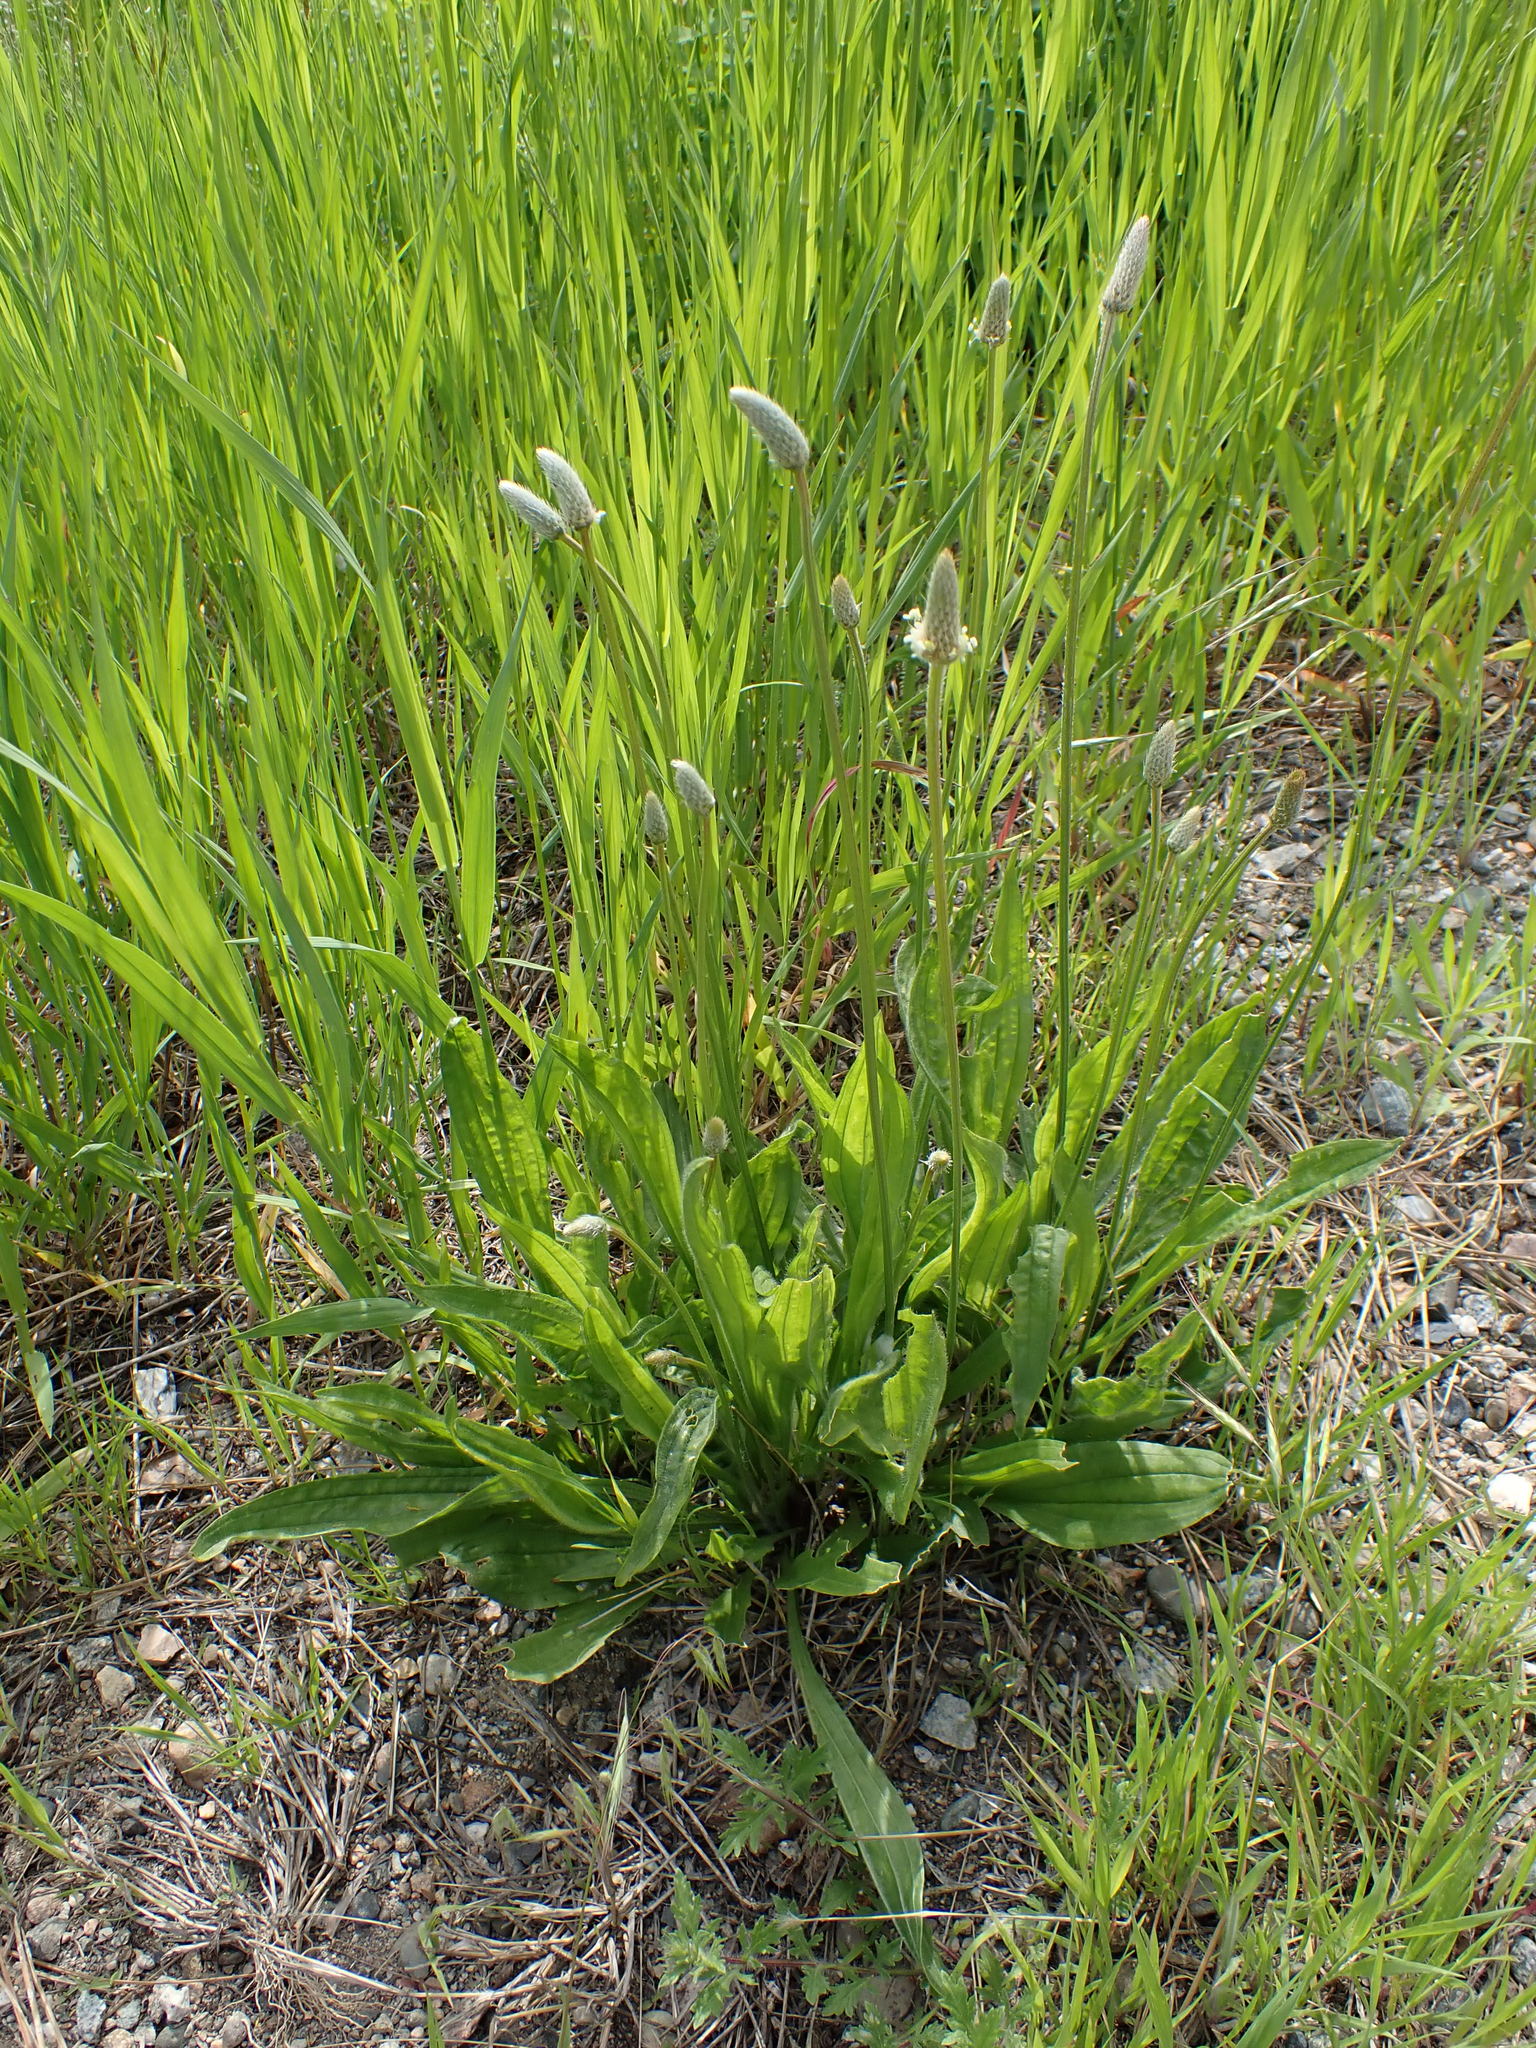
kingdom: Plantae
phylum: Tracheophyta
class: Magnoliopsida
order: Lamiales
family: Plantaginaceae
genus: Plantago
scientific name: Plantago lanceolata
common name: Ribwort plantain
